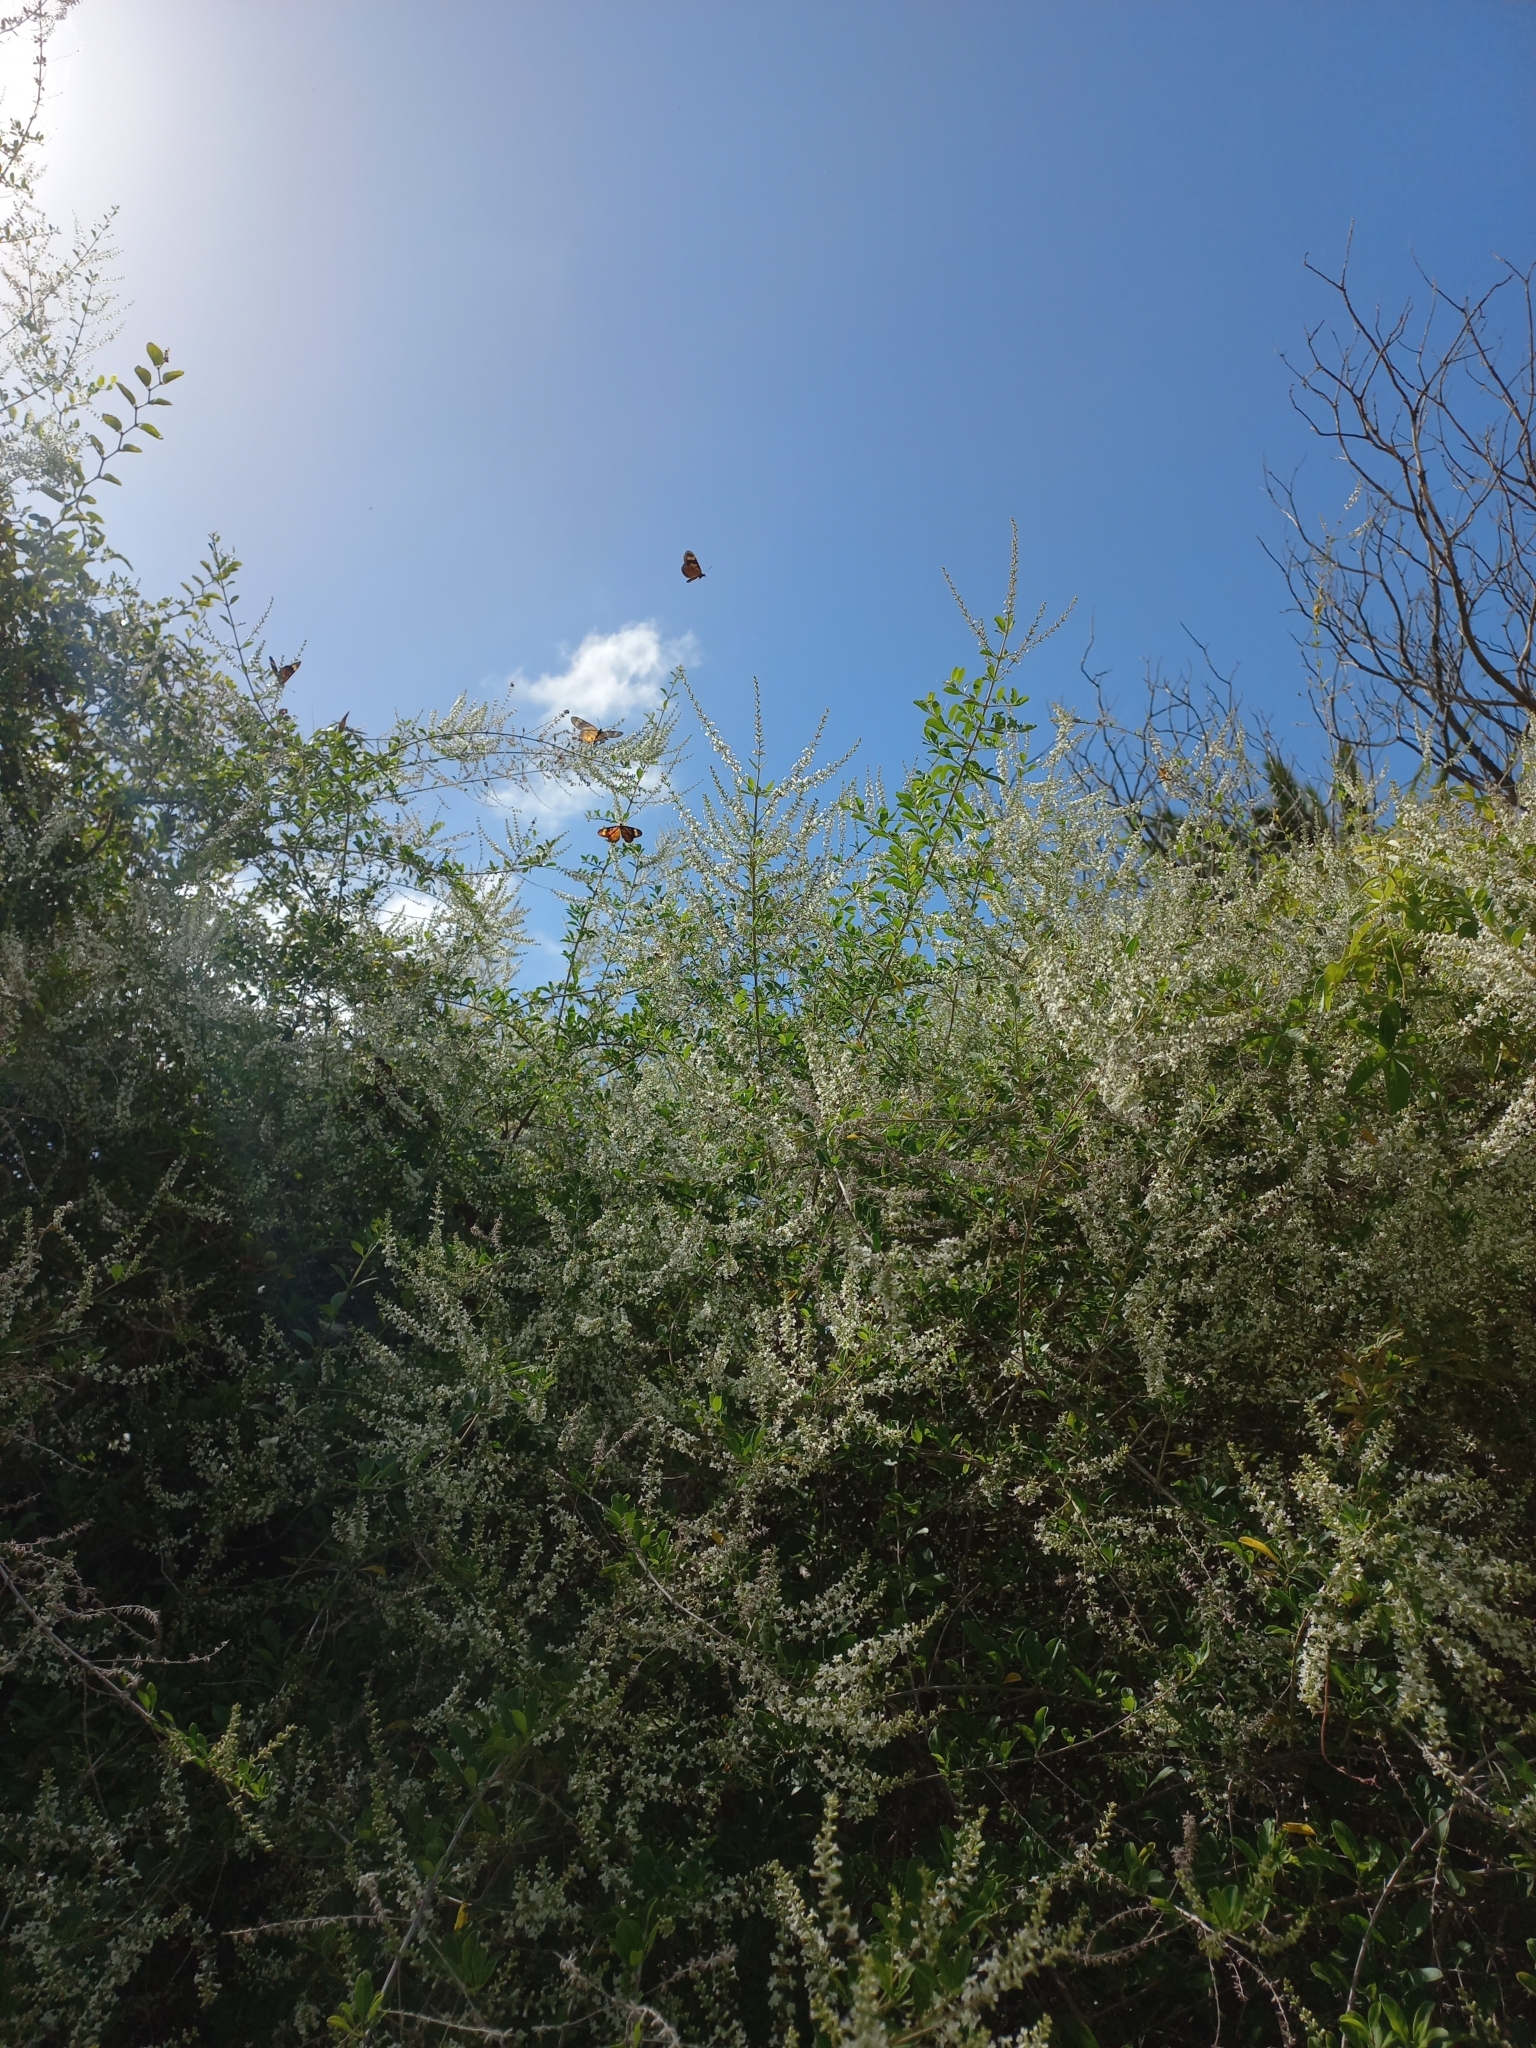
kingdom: Plantae
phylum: Tracheophyta
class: Magnoliopsida
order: Lamiales
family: Verbenaceae
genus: Aloysia
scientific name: Aloysia gratissima
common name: Common bee-brush
